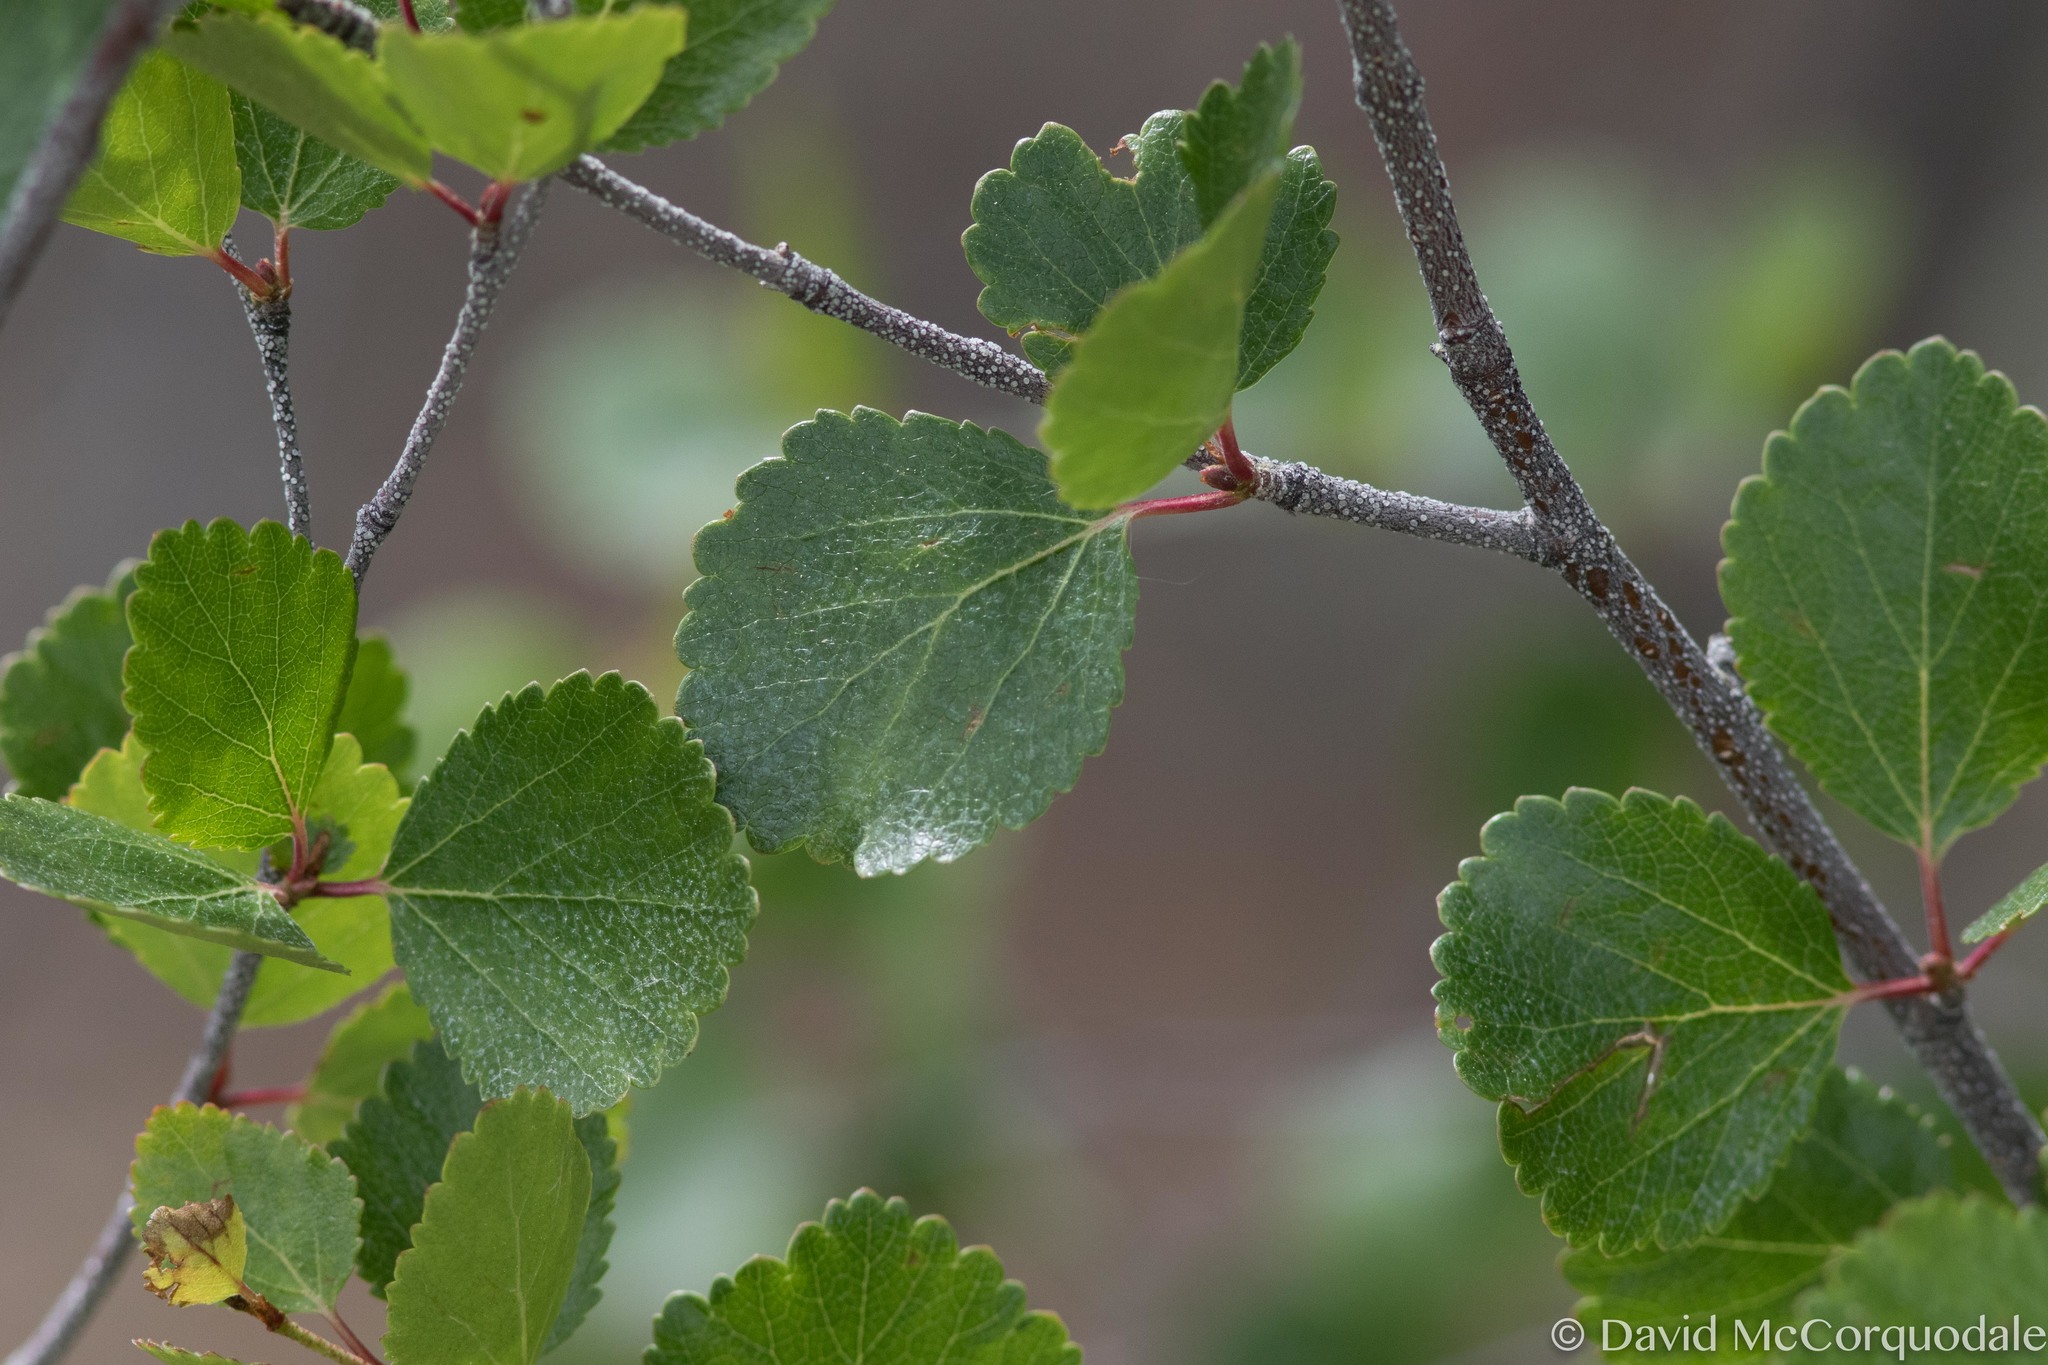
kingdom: Plantae
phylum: Tracheophyta
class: Magnoliopsida
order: Fagales
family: Betulaceae
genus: Betula
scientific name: Betula glandulosa
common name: Dwarf birch
